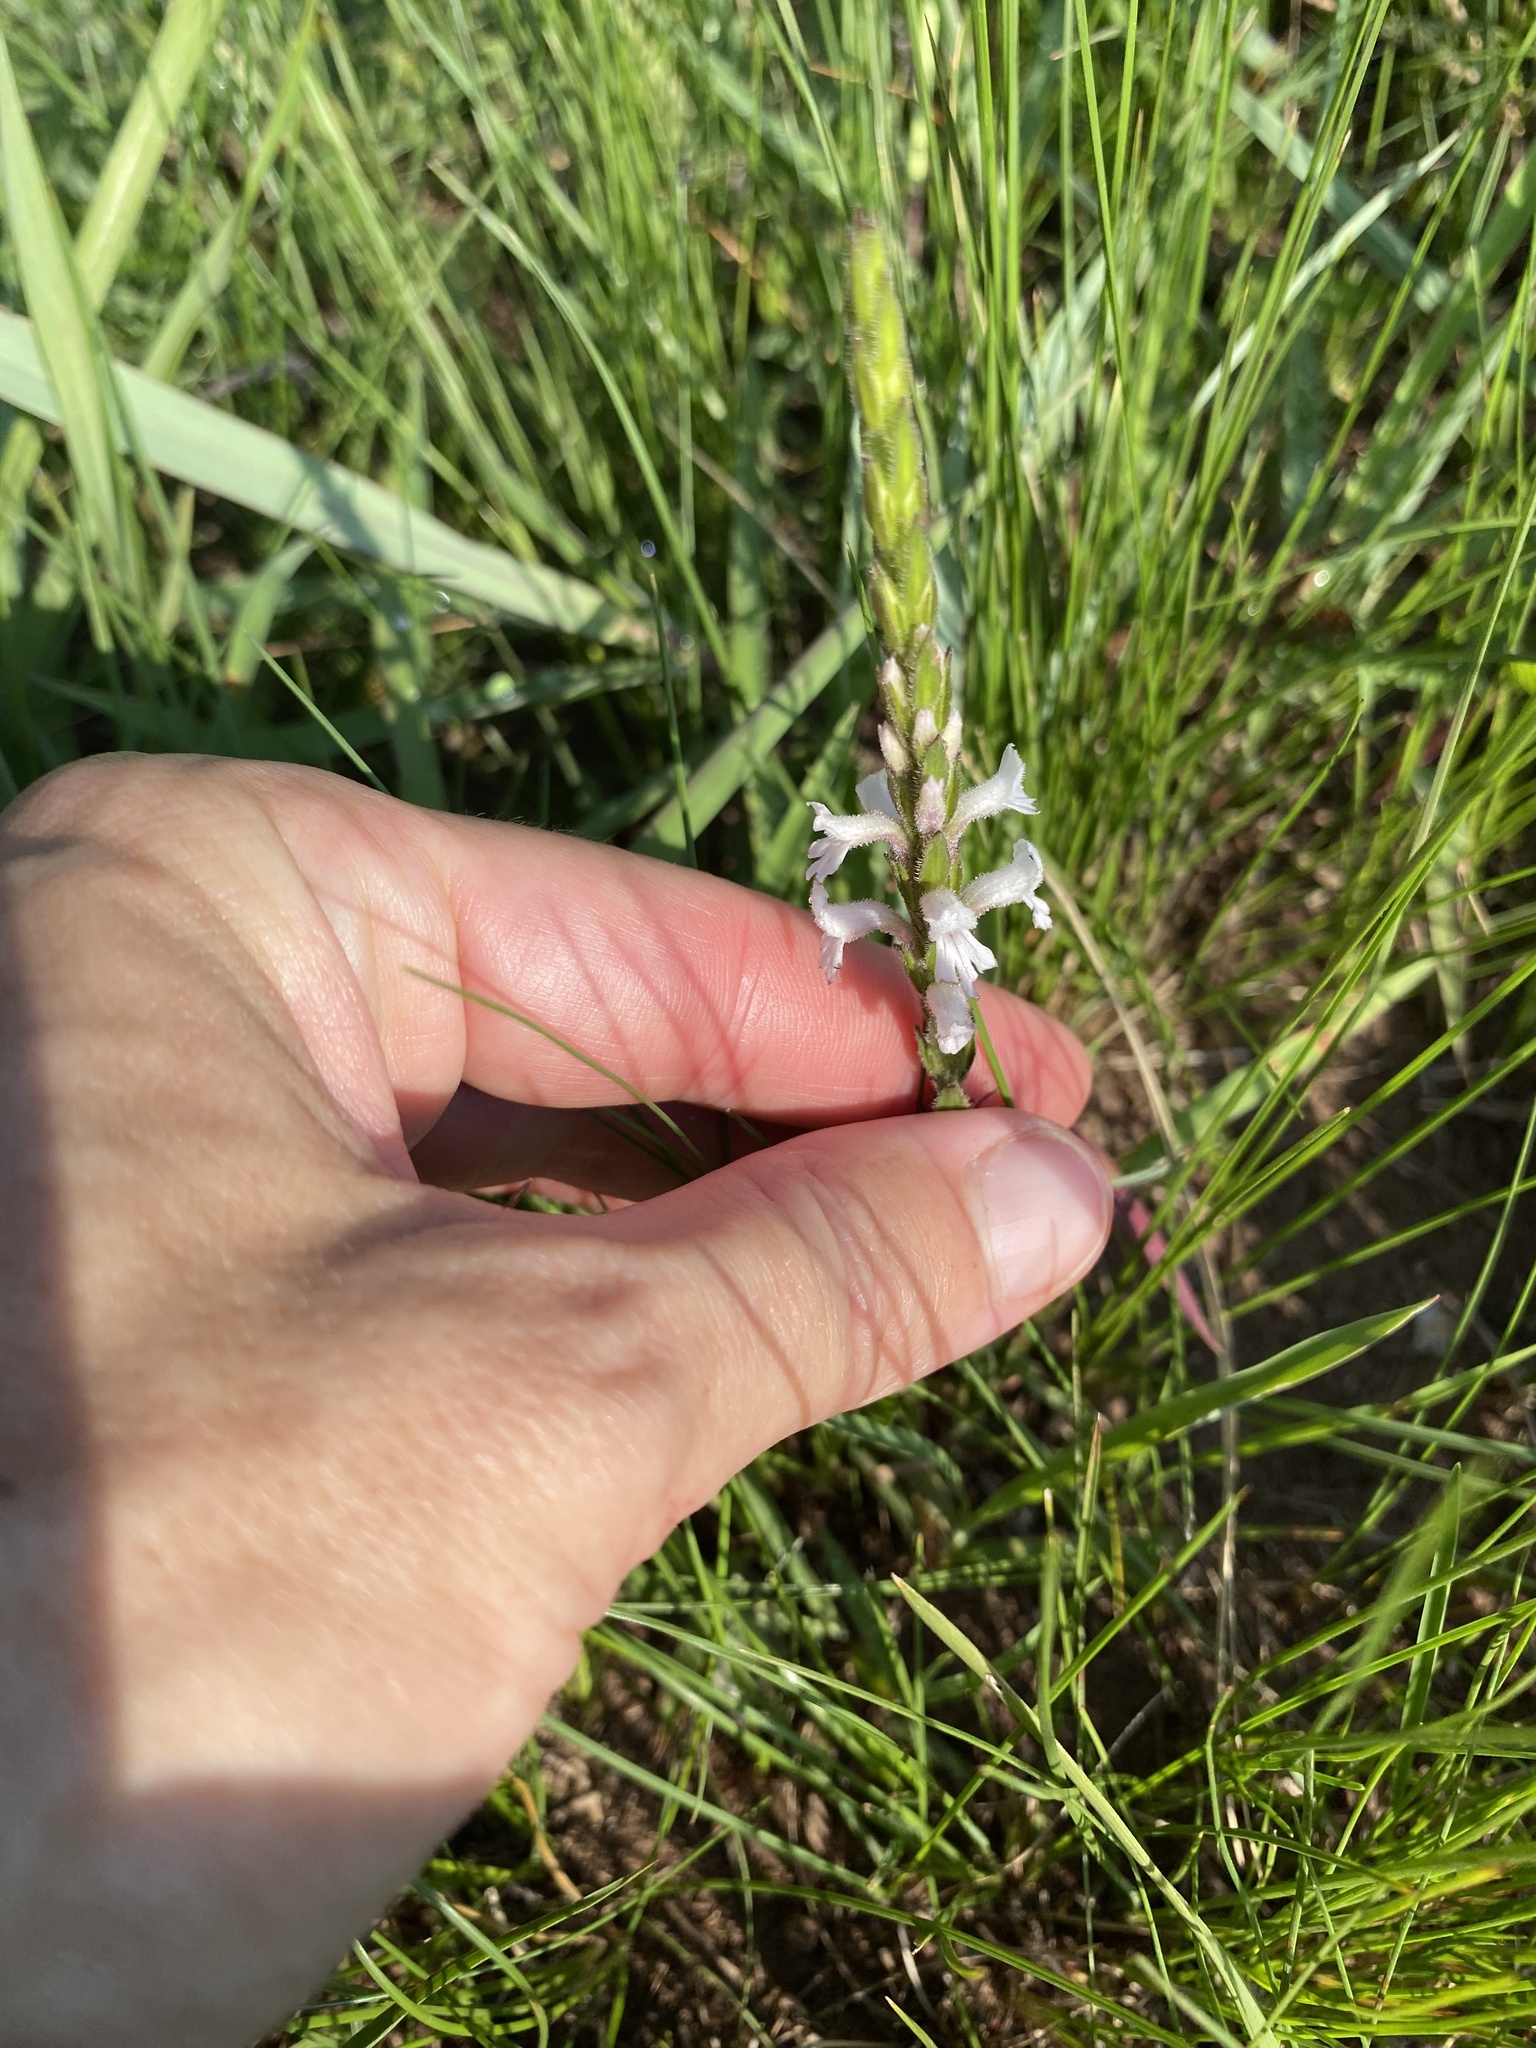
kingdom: Plantae
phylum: Tracheophyta
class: Magnoliopsida
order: Lamiales
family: Orobanchaceae
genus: Striga
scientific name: Striga bilabiata
